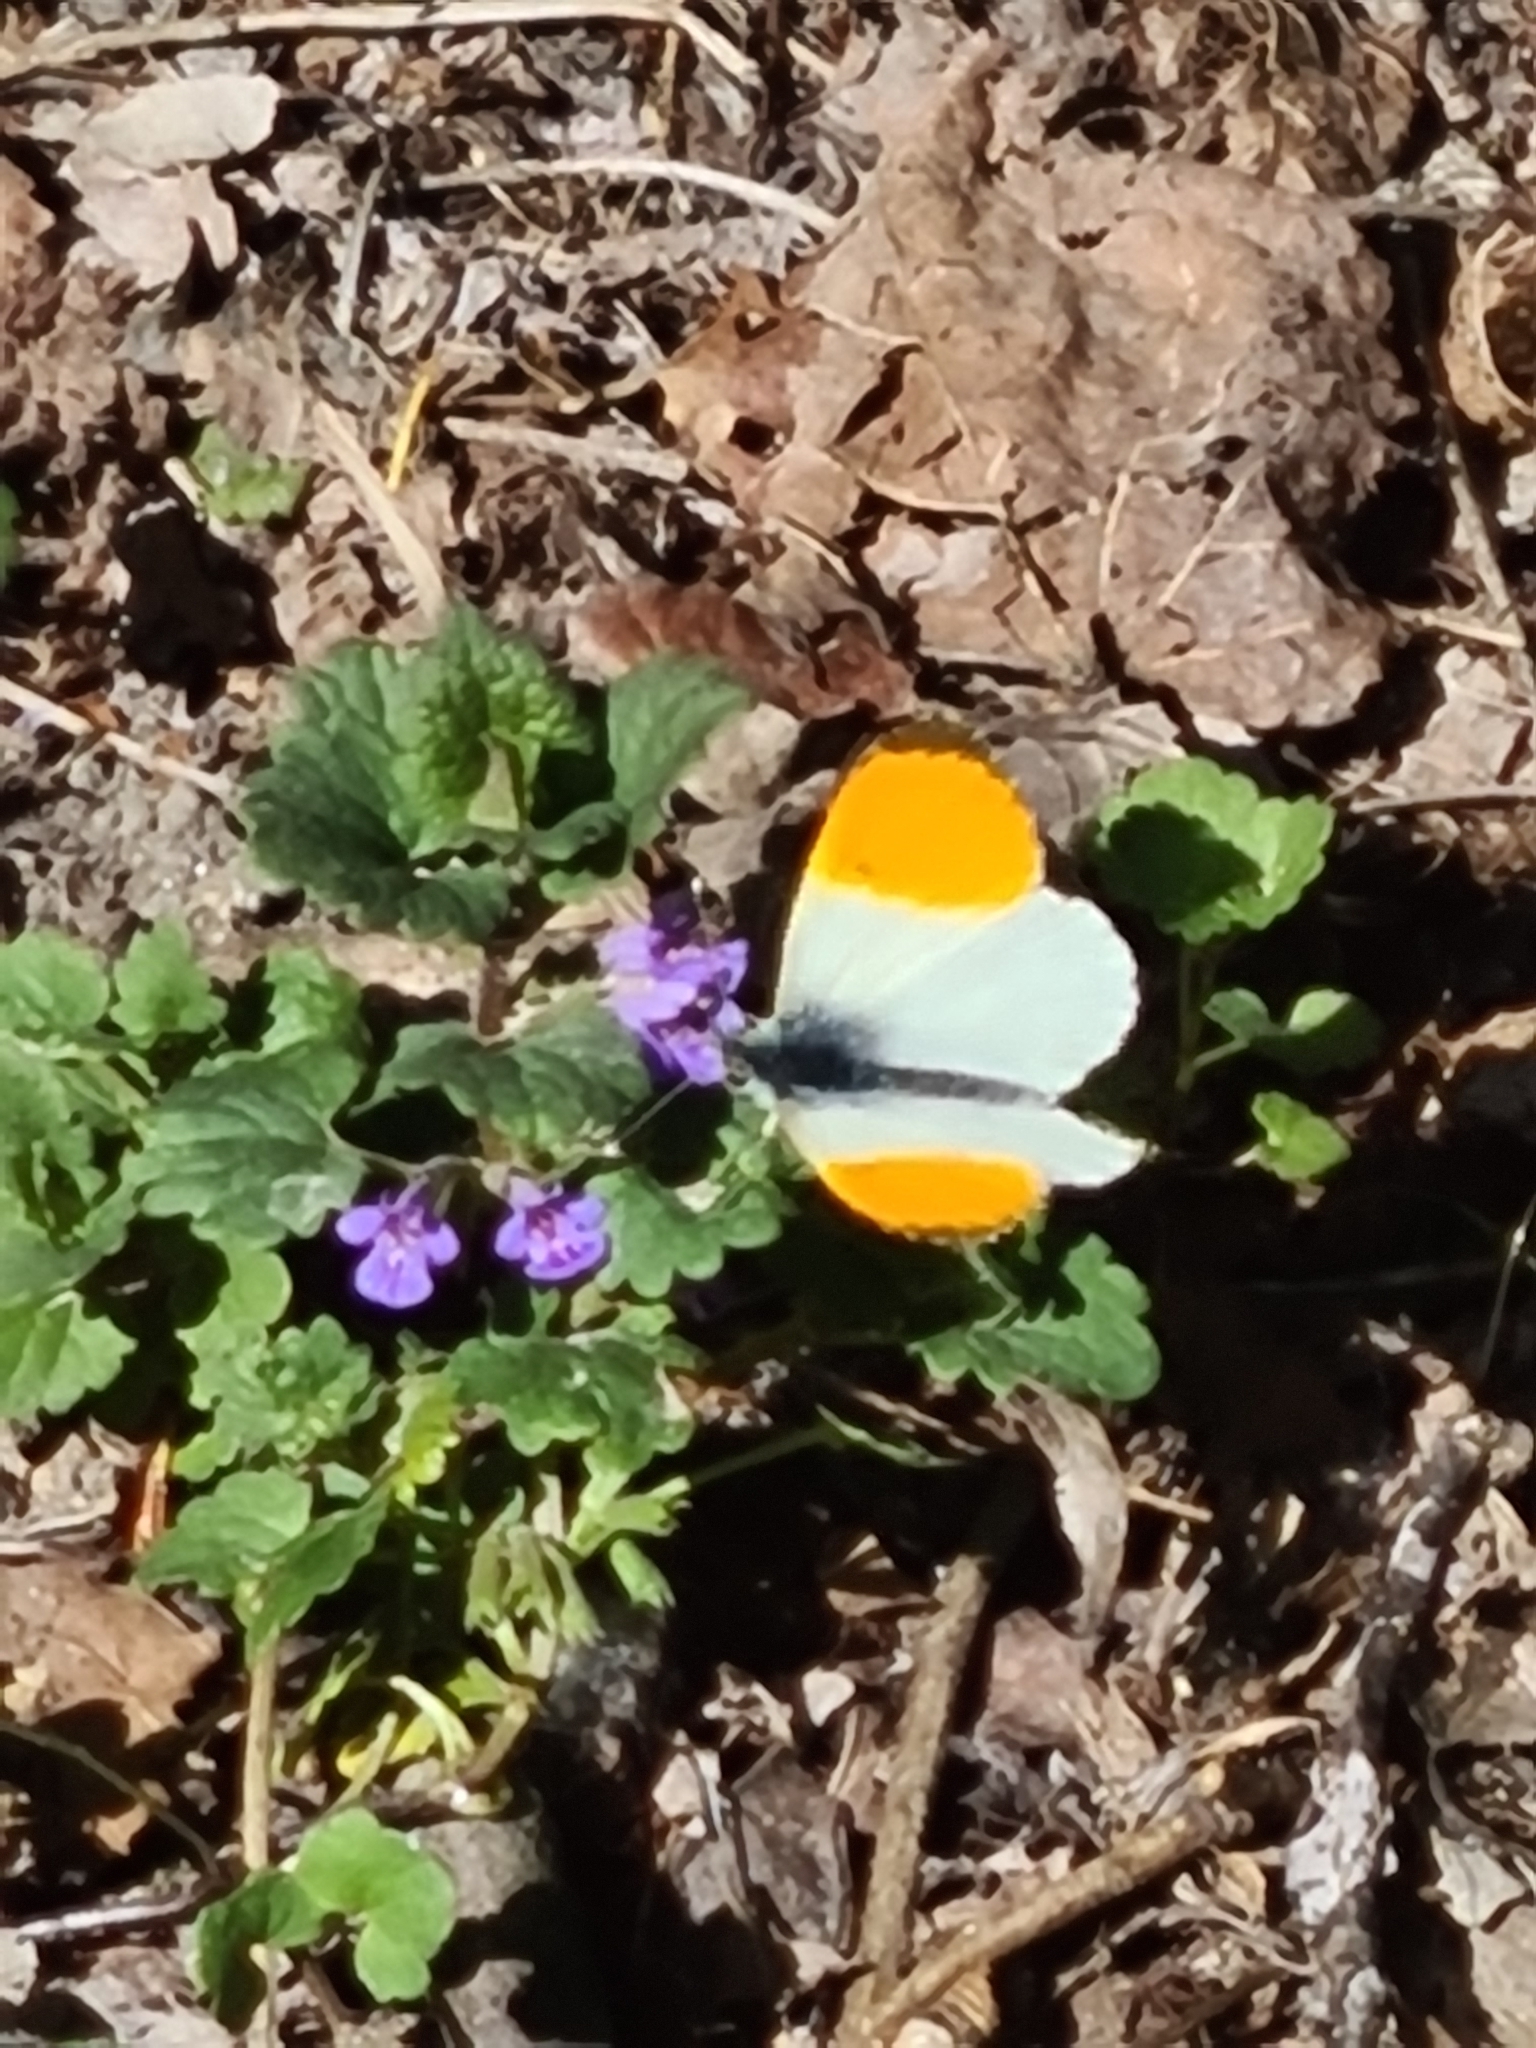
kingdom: Animalia
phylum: Arthropoda
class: Insecta
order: Lepidoptera
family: Pieridae
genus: Anthocharis
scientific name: Anthocharis cardamines
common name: Orange-tip
